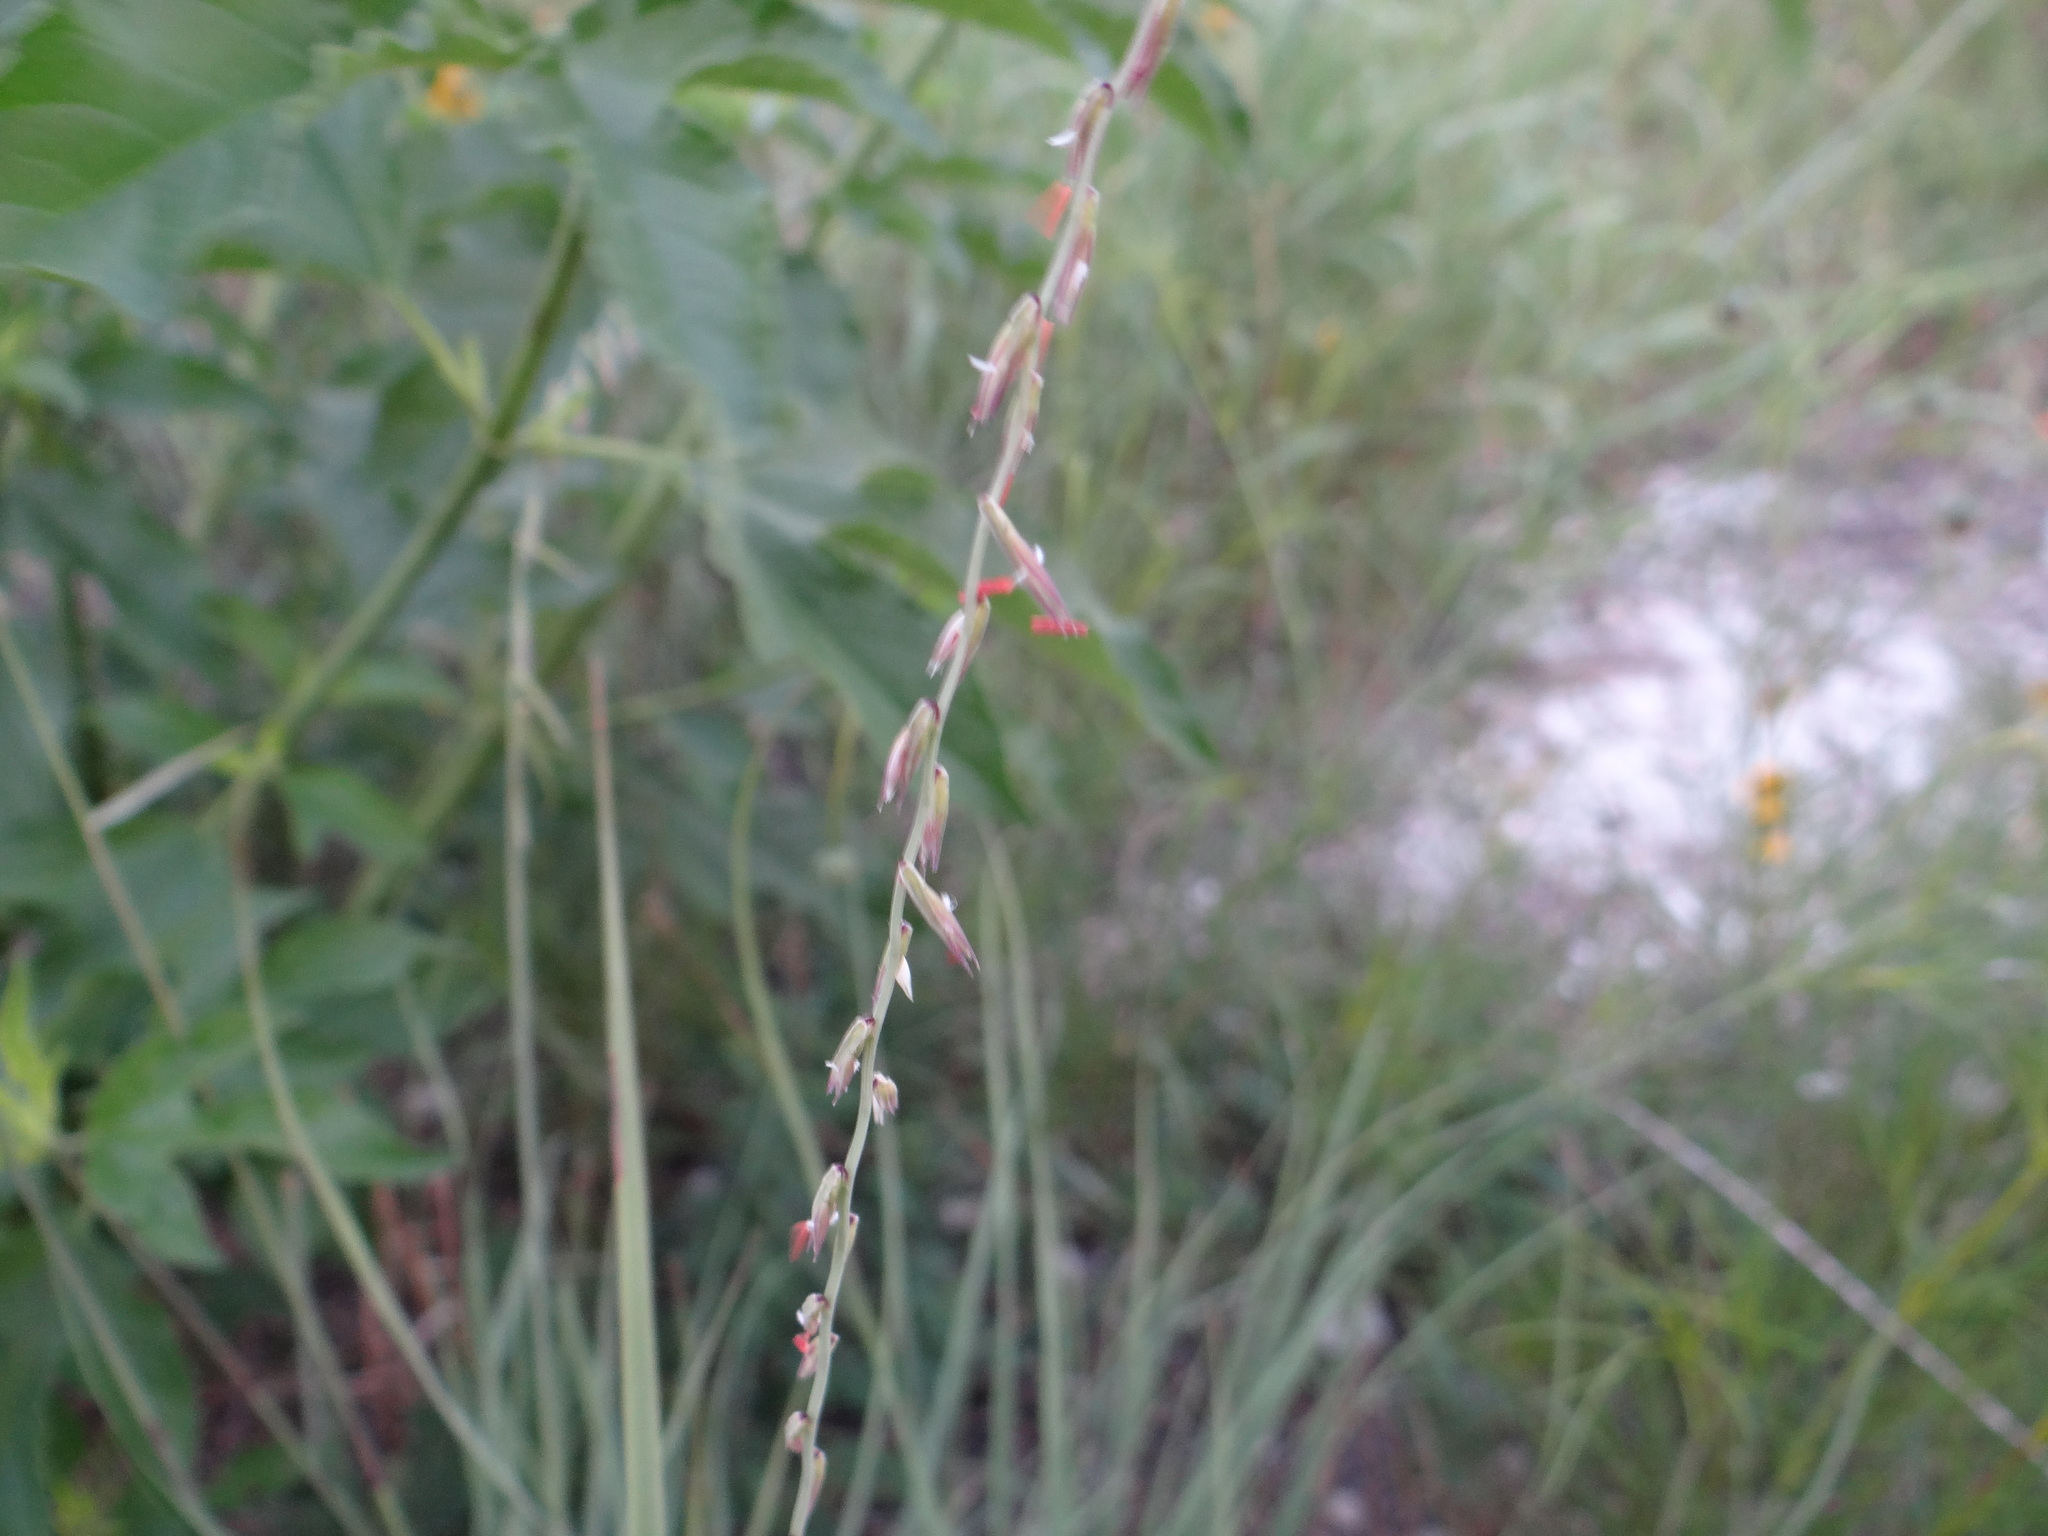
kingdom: Plantae
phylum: Tracheophyta
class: Liliopsida
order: Poales
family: Poaceae
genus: Bouteloua
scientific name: Bouteloua curtipendula
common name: Side-oats grama
